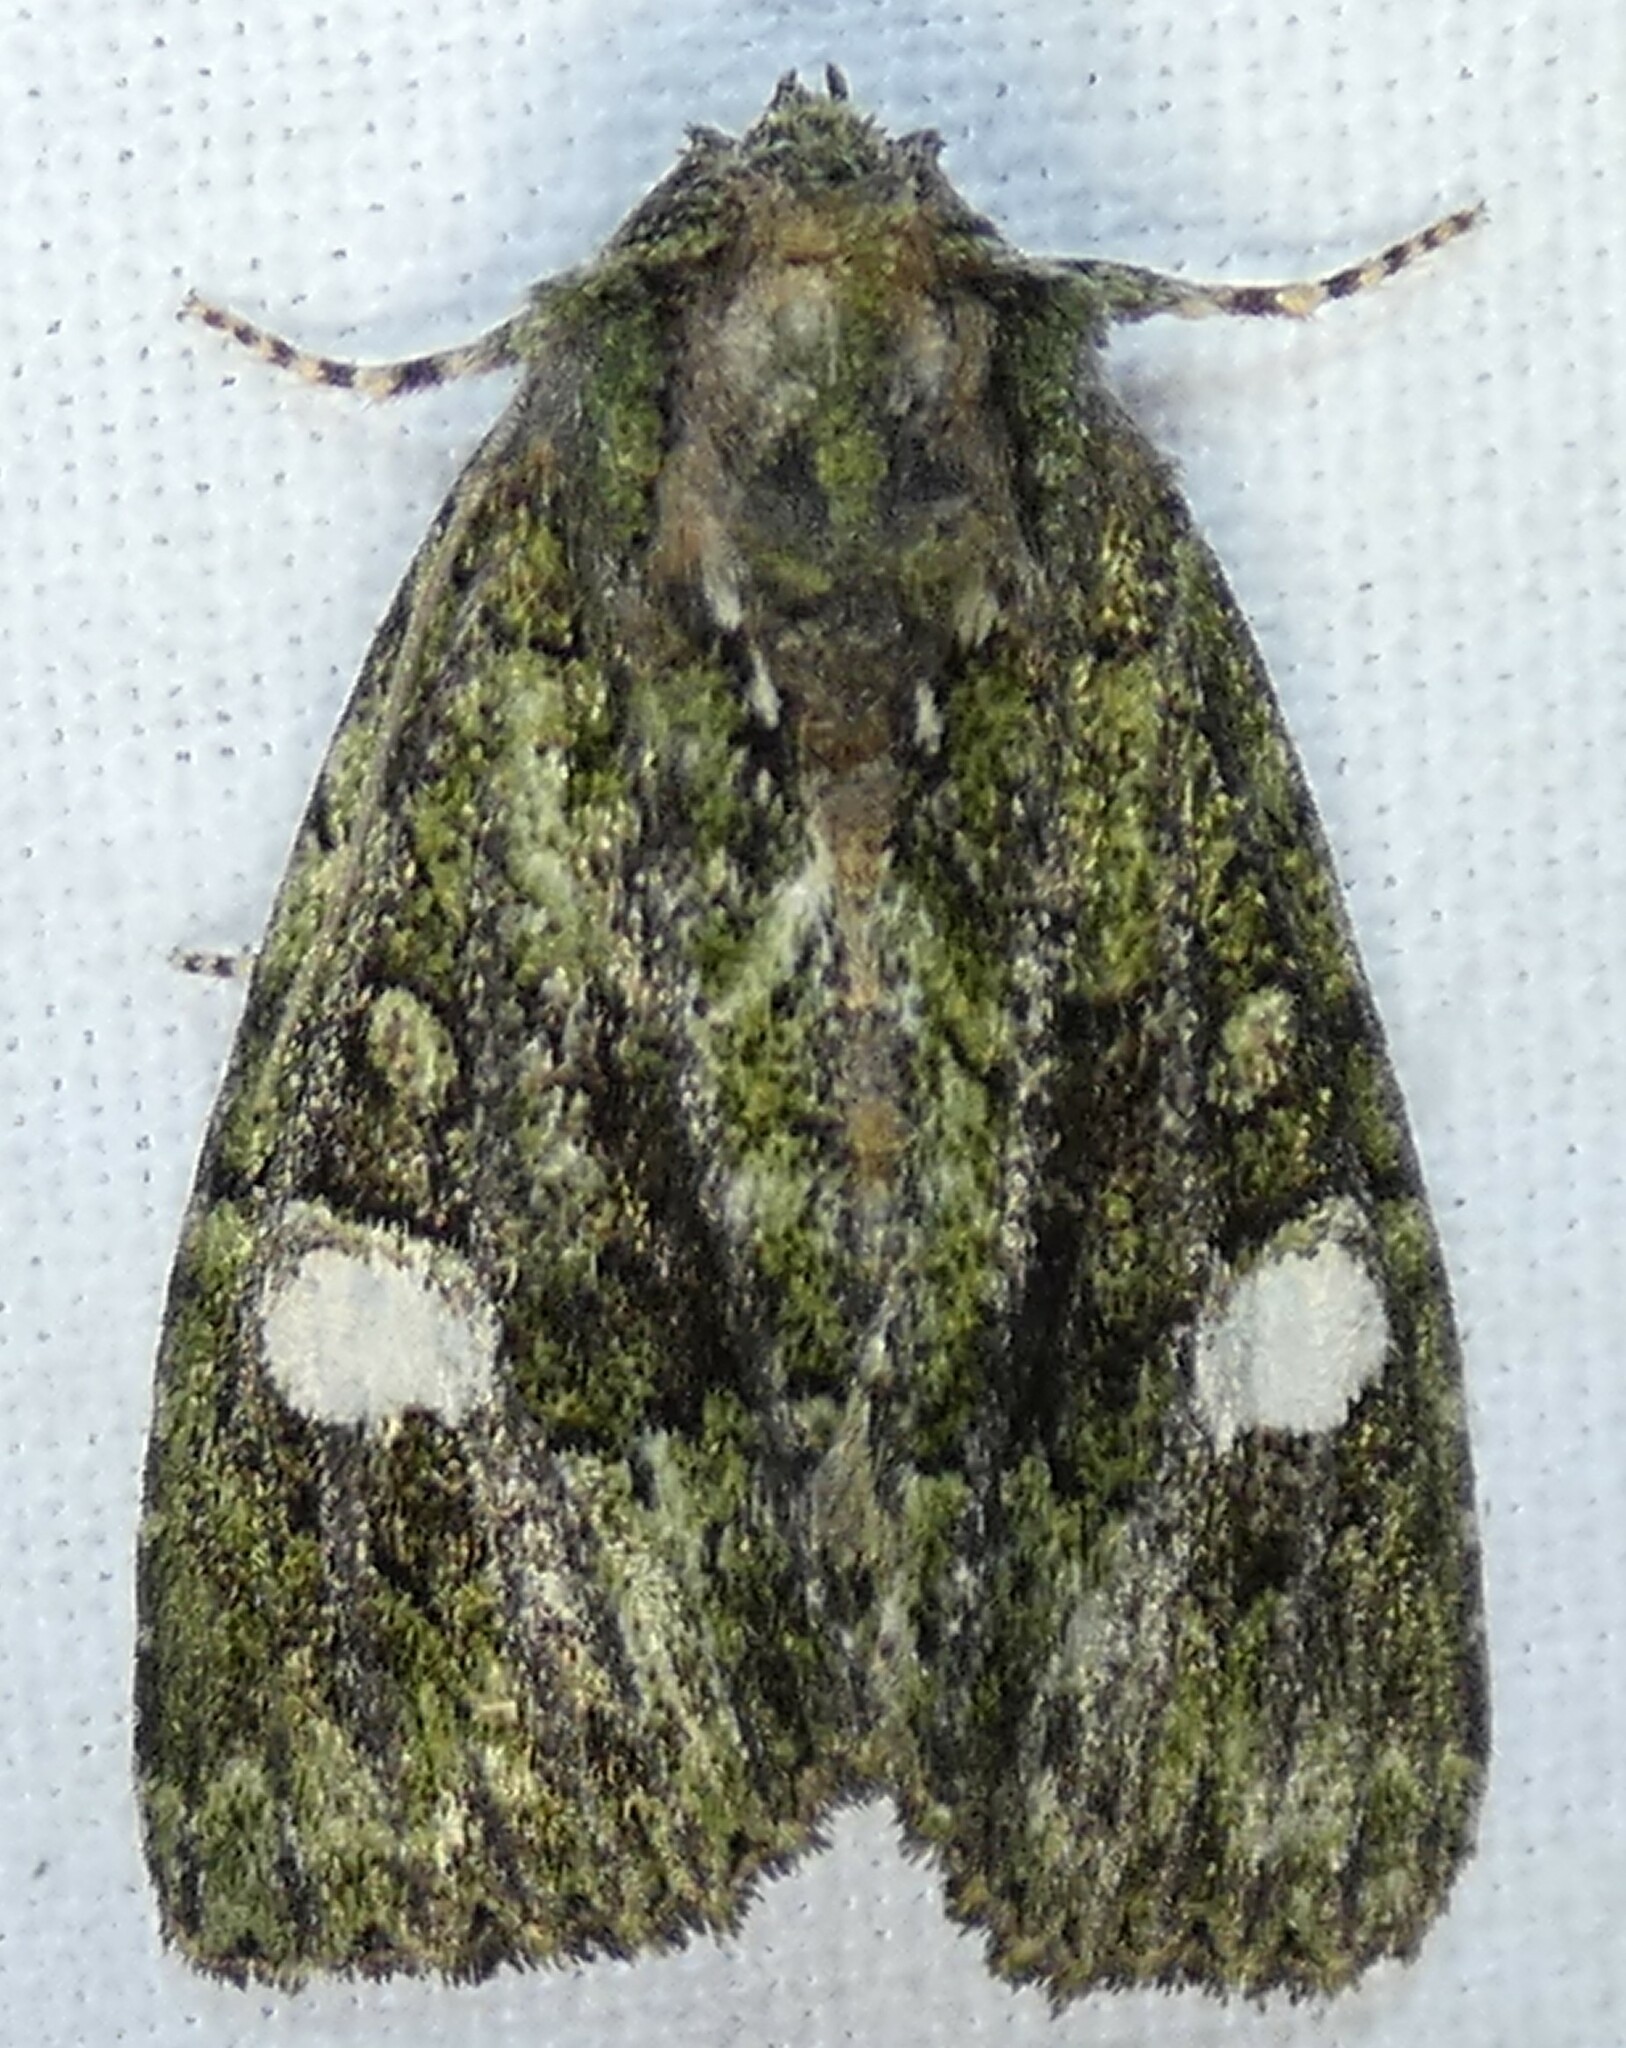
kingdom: Animalia
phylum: Arthropoda
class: Insecta
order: Lepidoptera
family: Noctuidae
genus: Phosphila
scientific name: Phosphila miselioides
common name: Spotted phosphila moth
